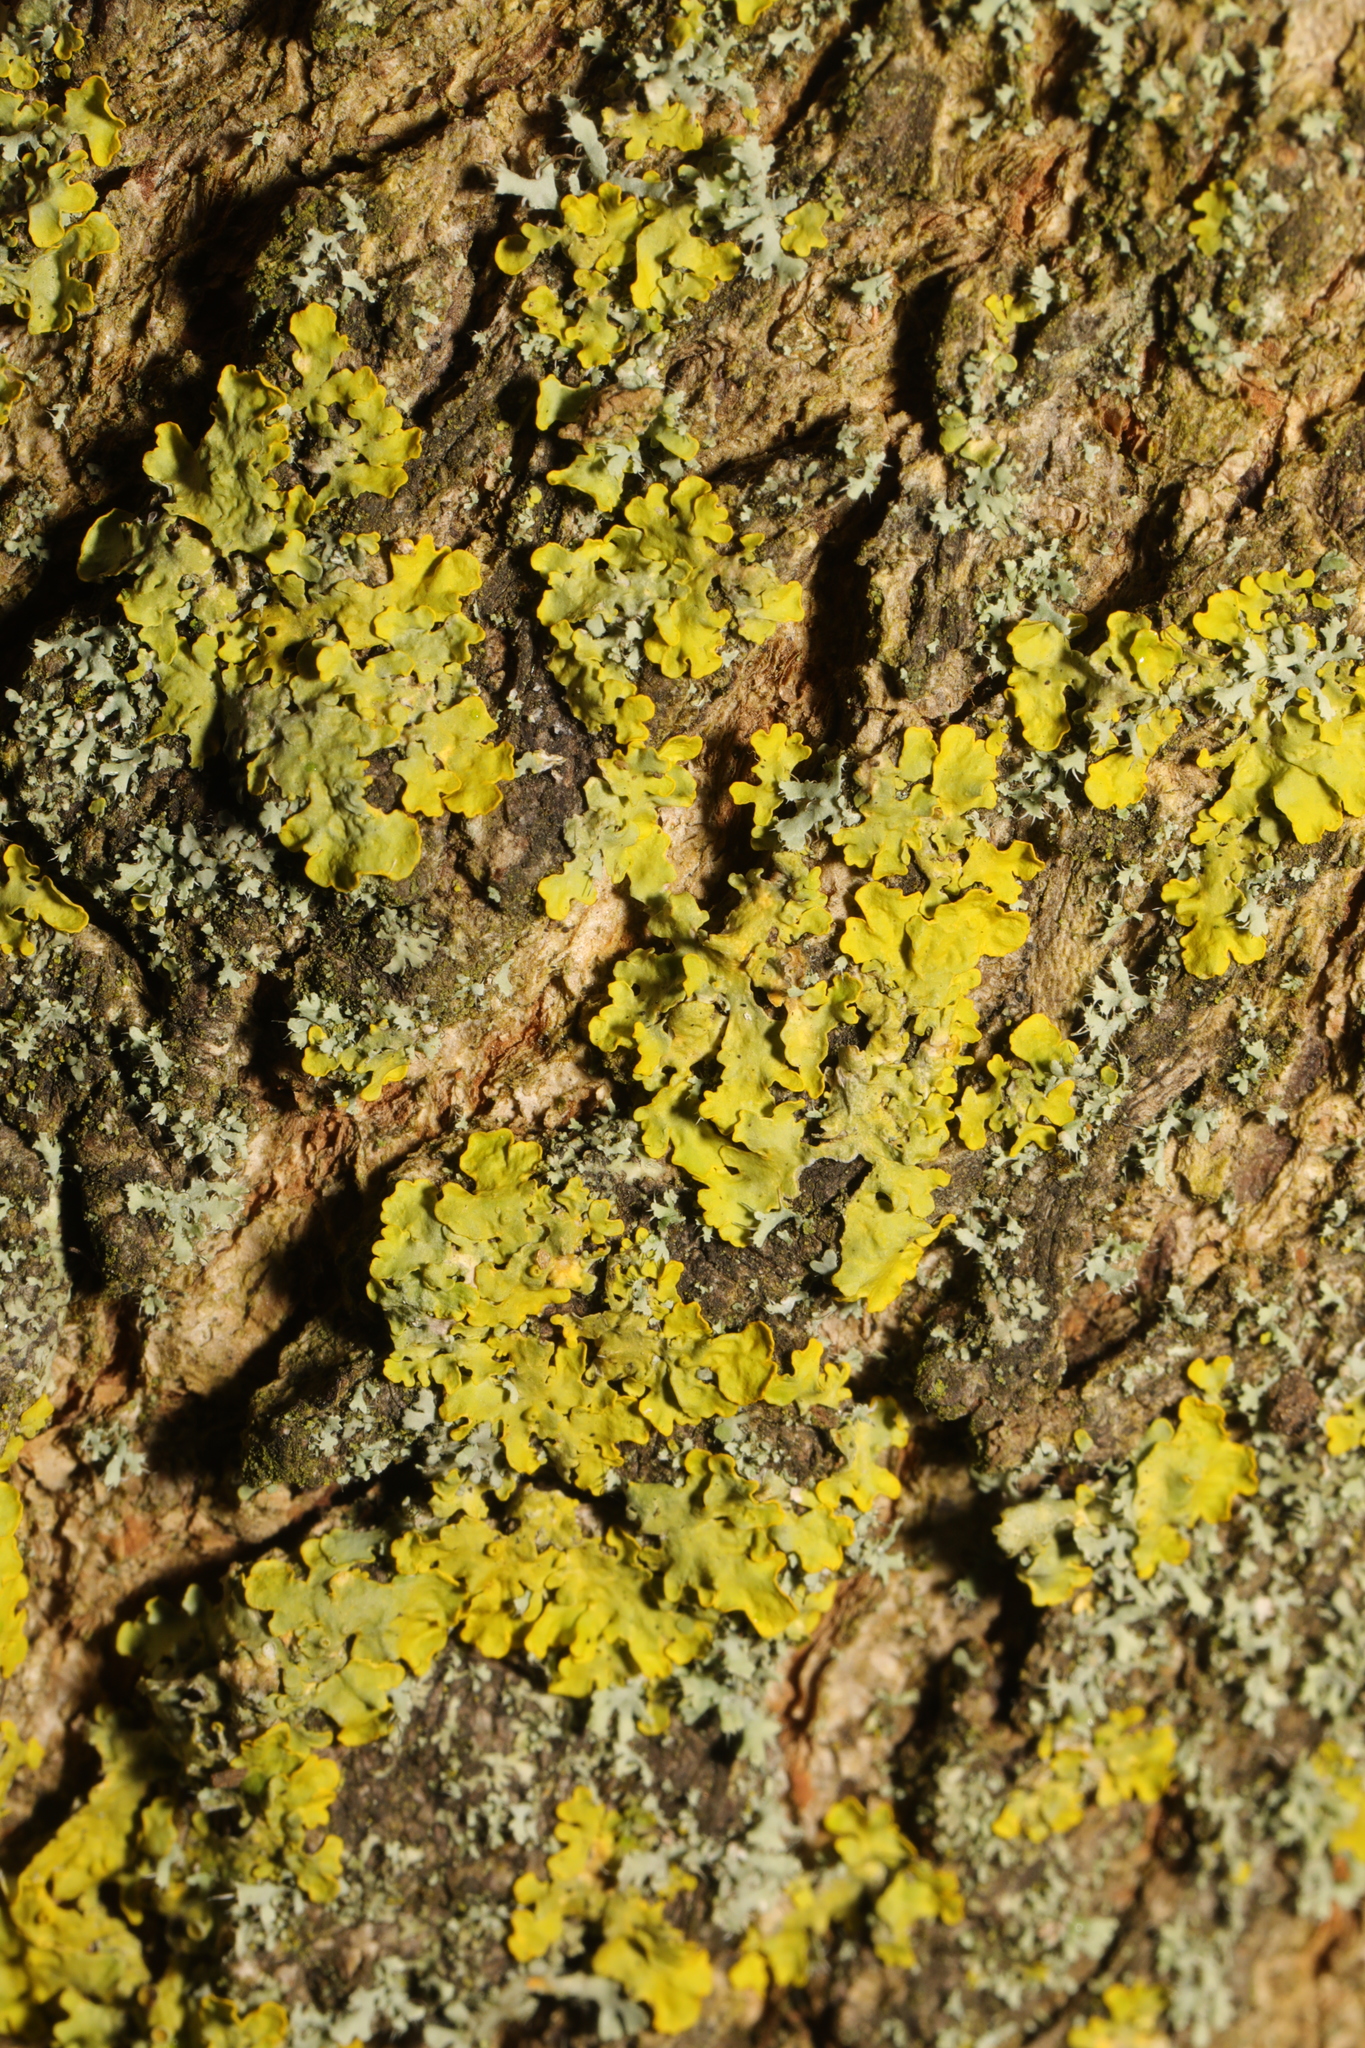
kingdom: Fungi
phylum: Ascomycota
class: Lecanoromycetes
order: Teloschistales
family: Teloschistaceae
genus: Xanthoria
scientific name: Xanthoria parietina
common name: Common orange lichen
